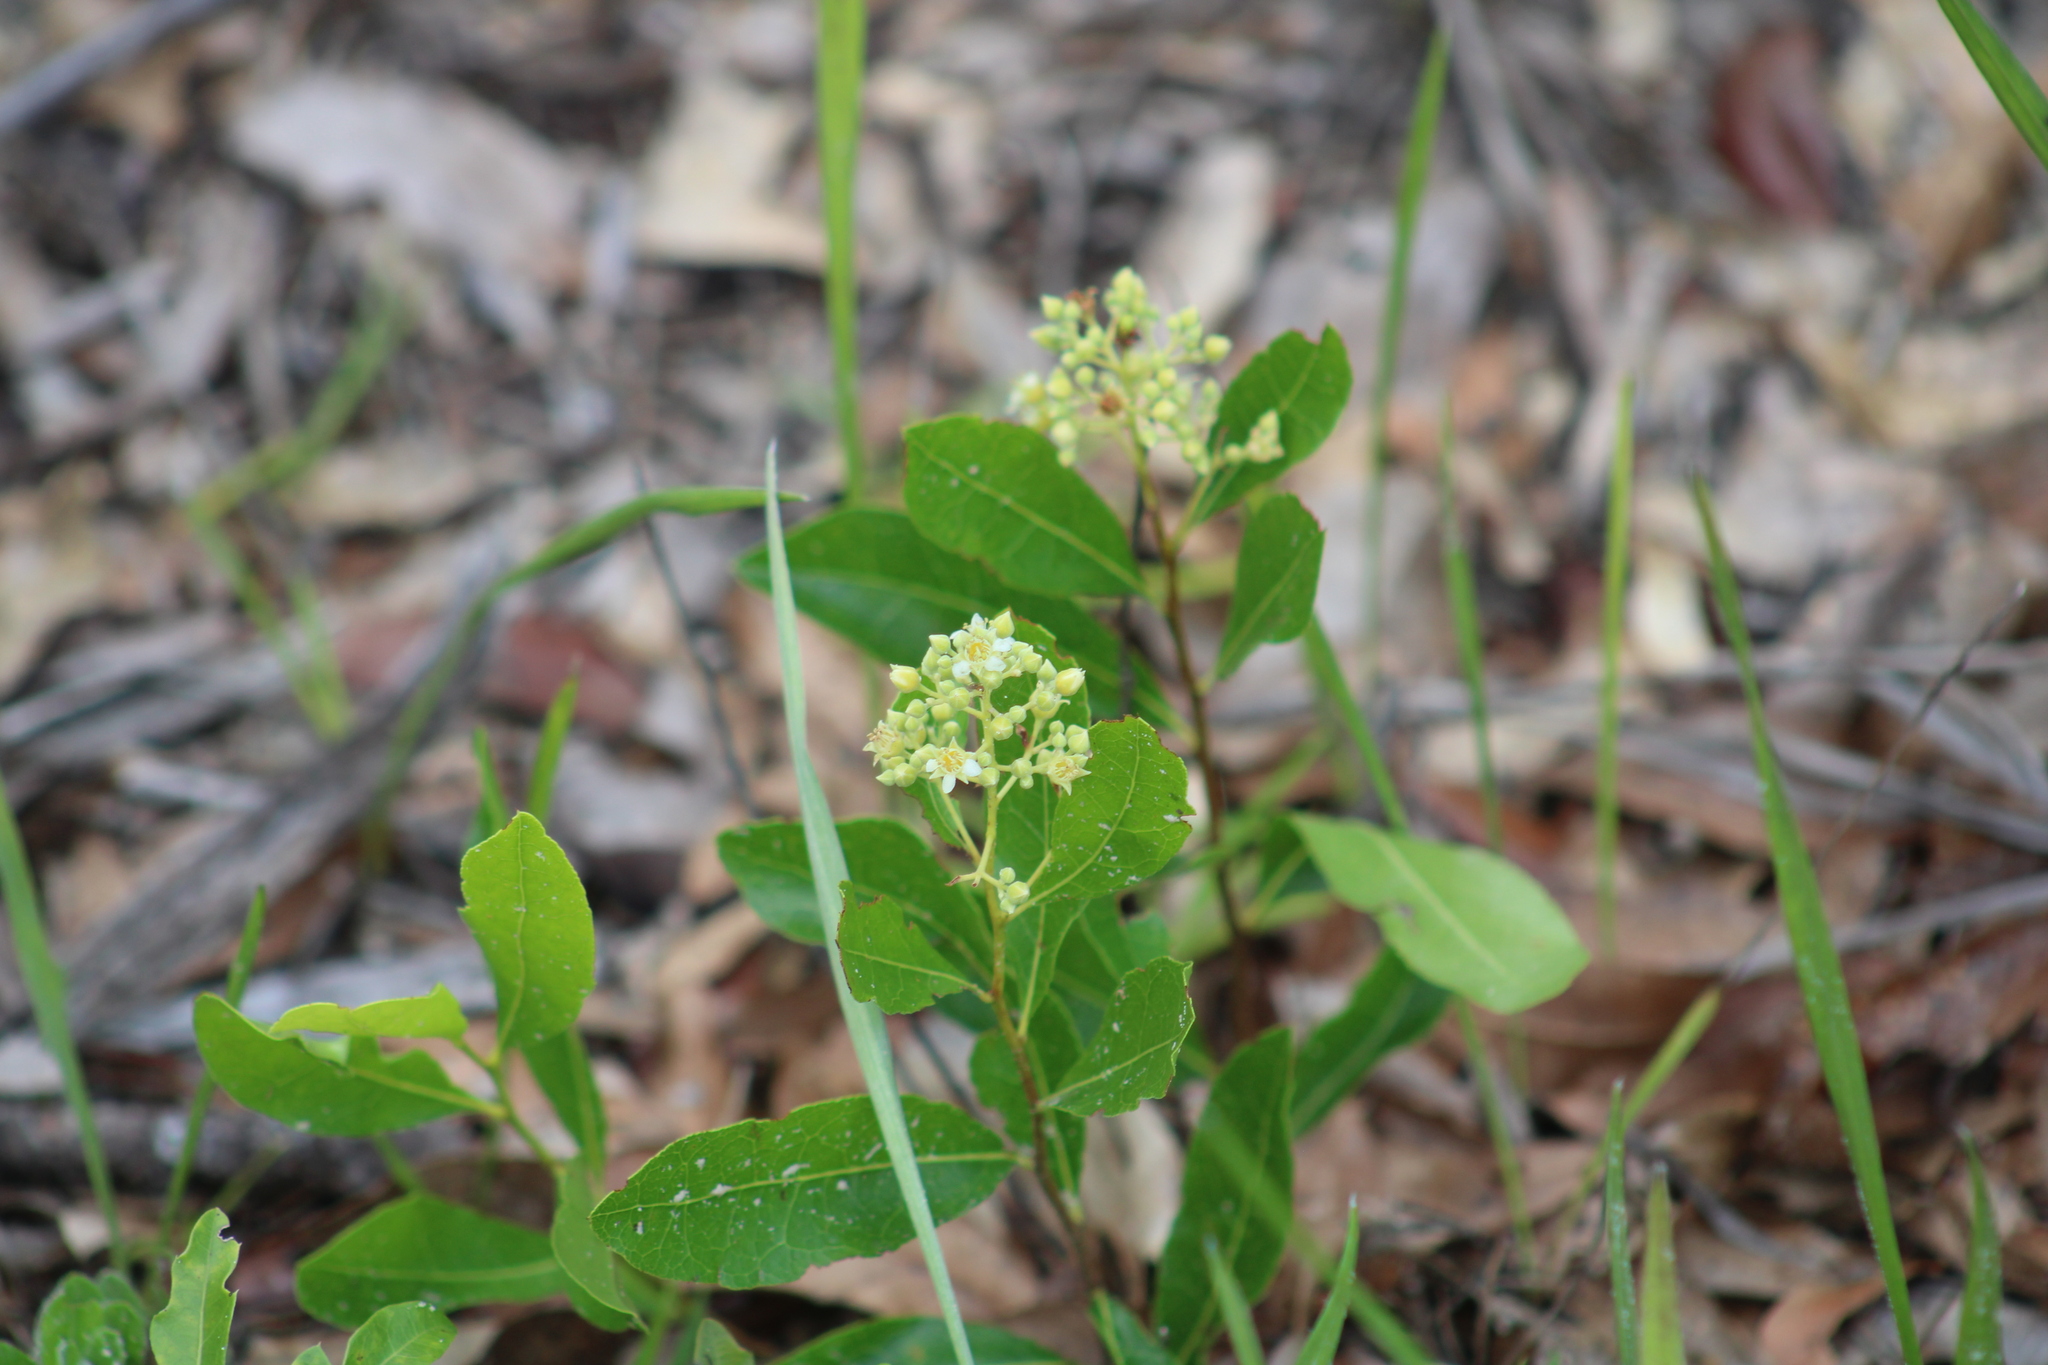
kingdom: Plantae
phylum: Tracheophyta
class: Magnoliopsida
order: Malpighiales
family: Chrysobalanaceae
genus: Geobalanus
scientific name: Geobalanus oblongifolius
